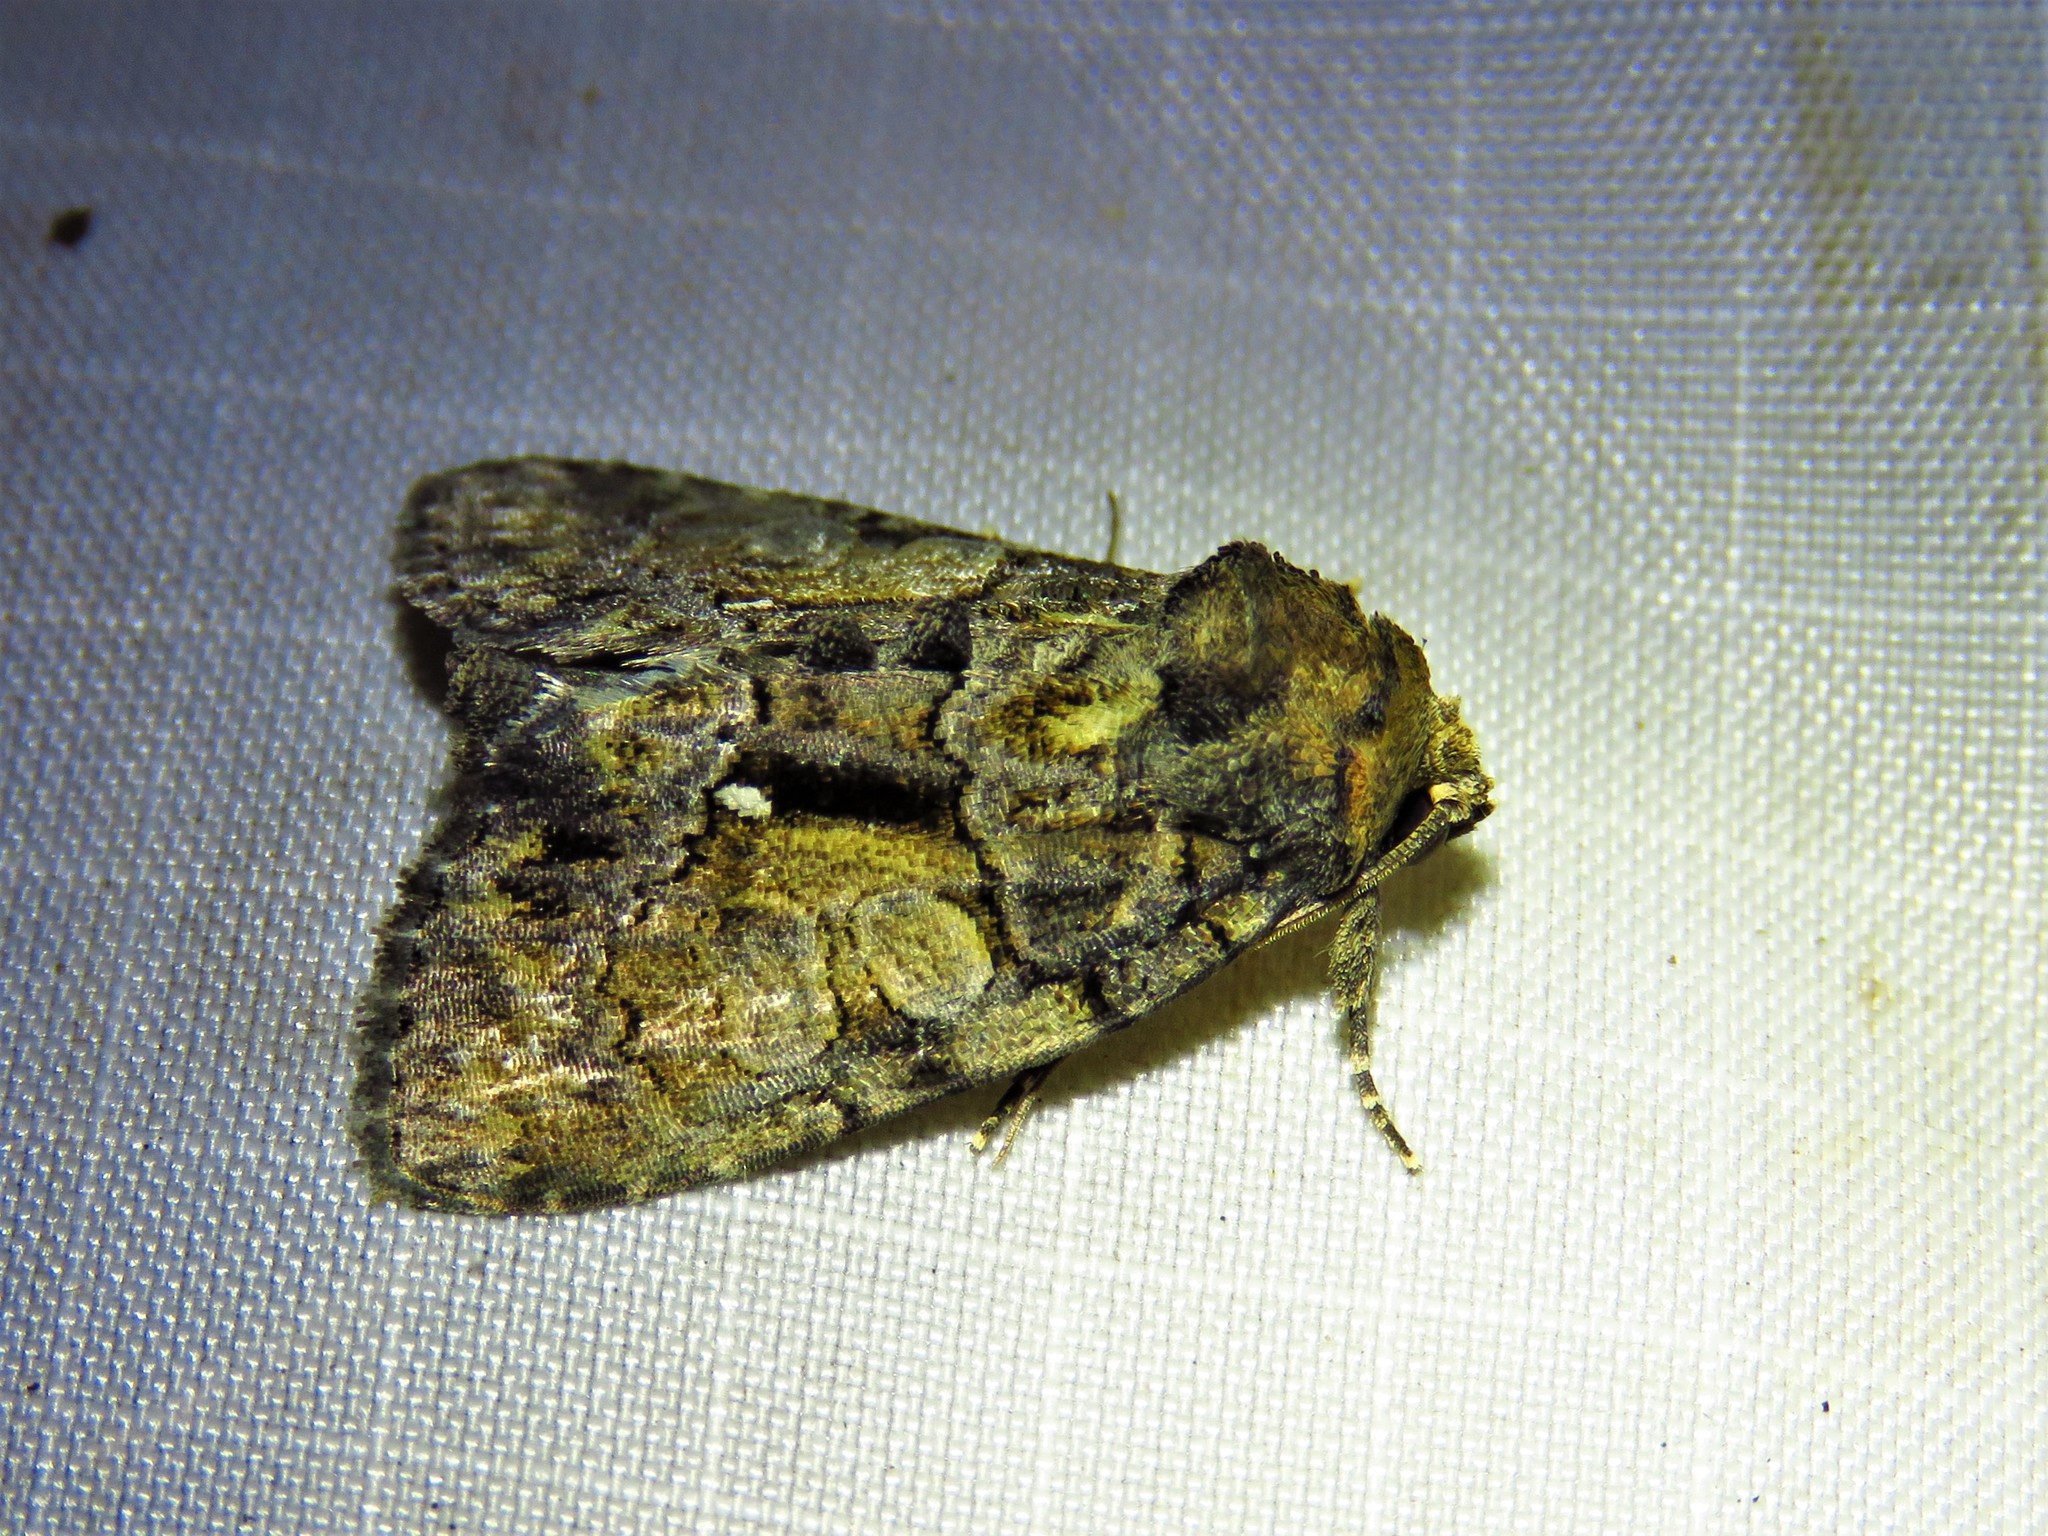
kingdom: Animalia
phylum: Arthropoda
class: Insecta
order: Lepidoptera
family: Noctuidae
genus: Chytonix
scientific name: Chytonix palliatricula
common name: Cloaked marvel
